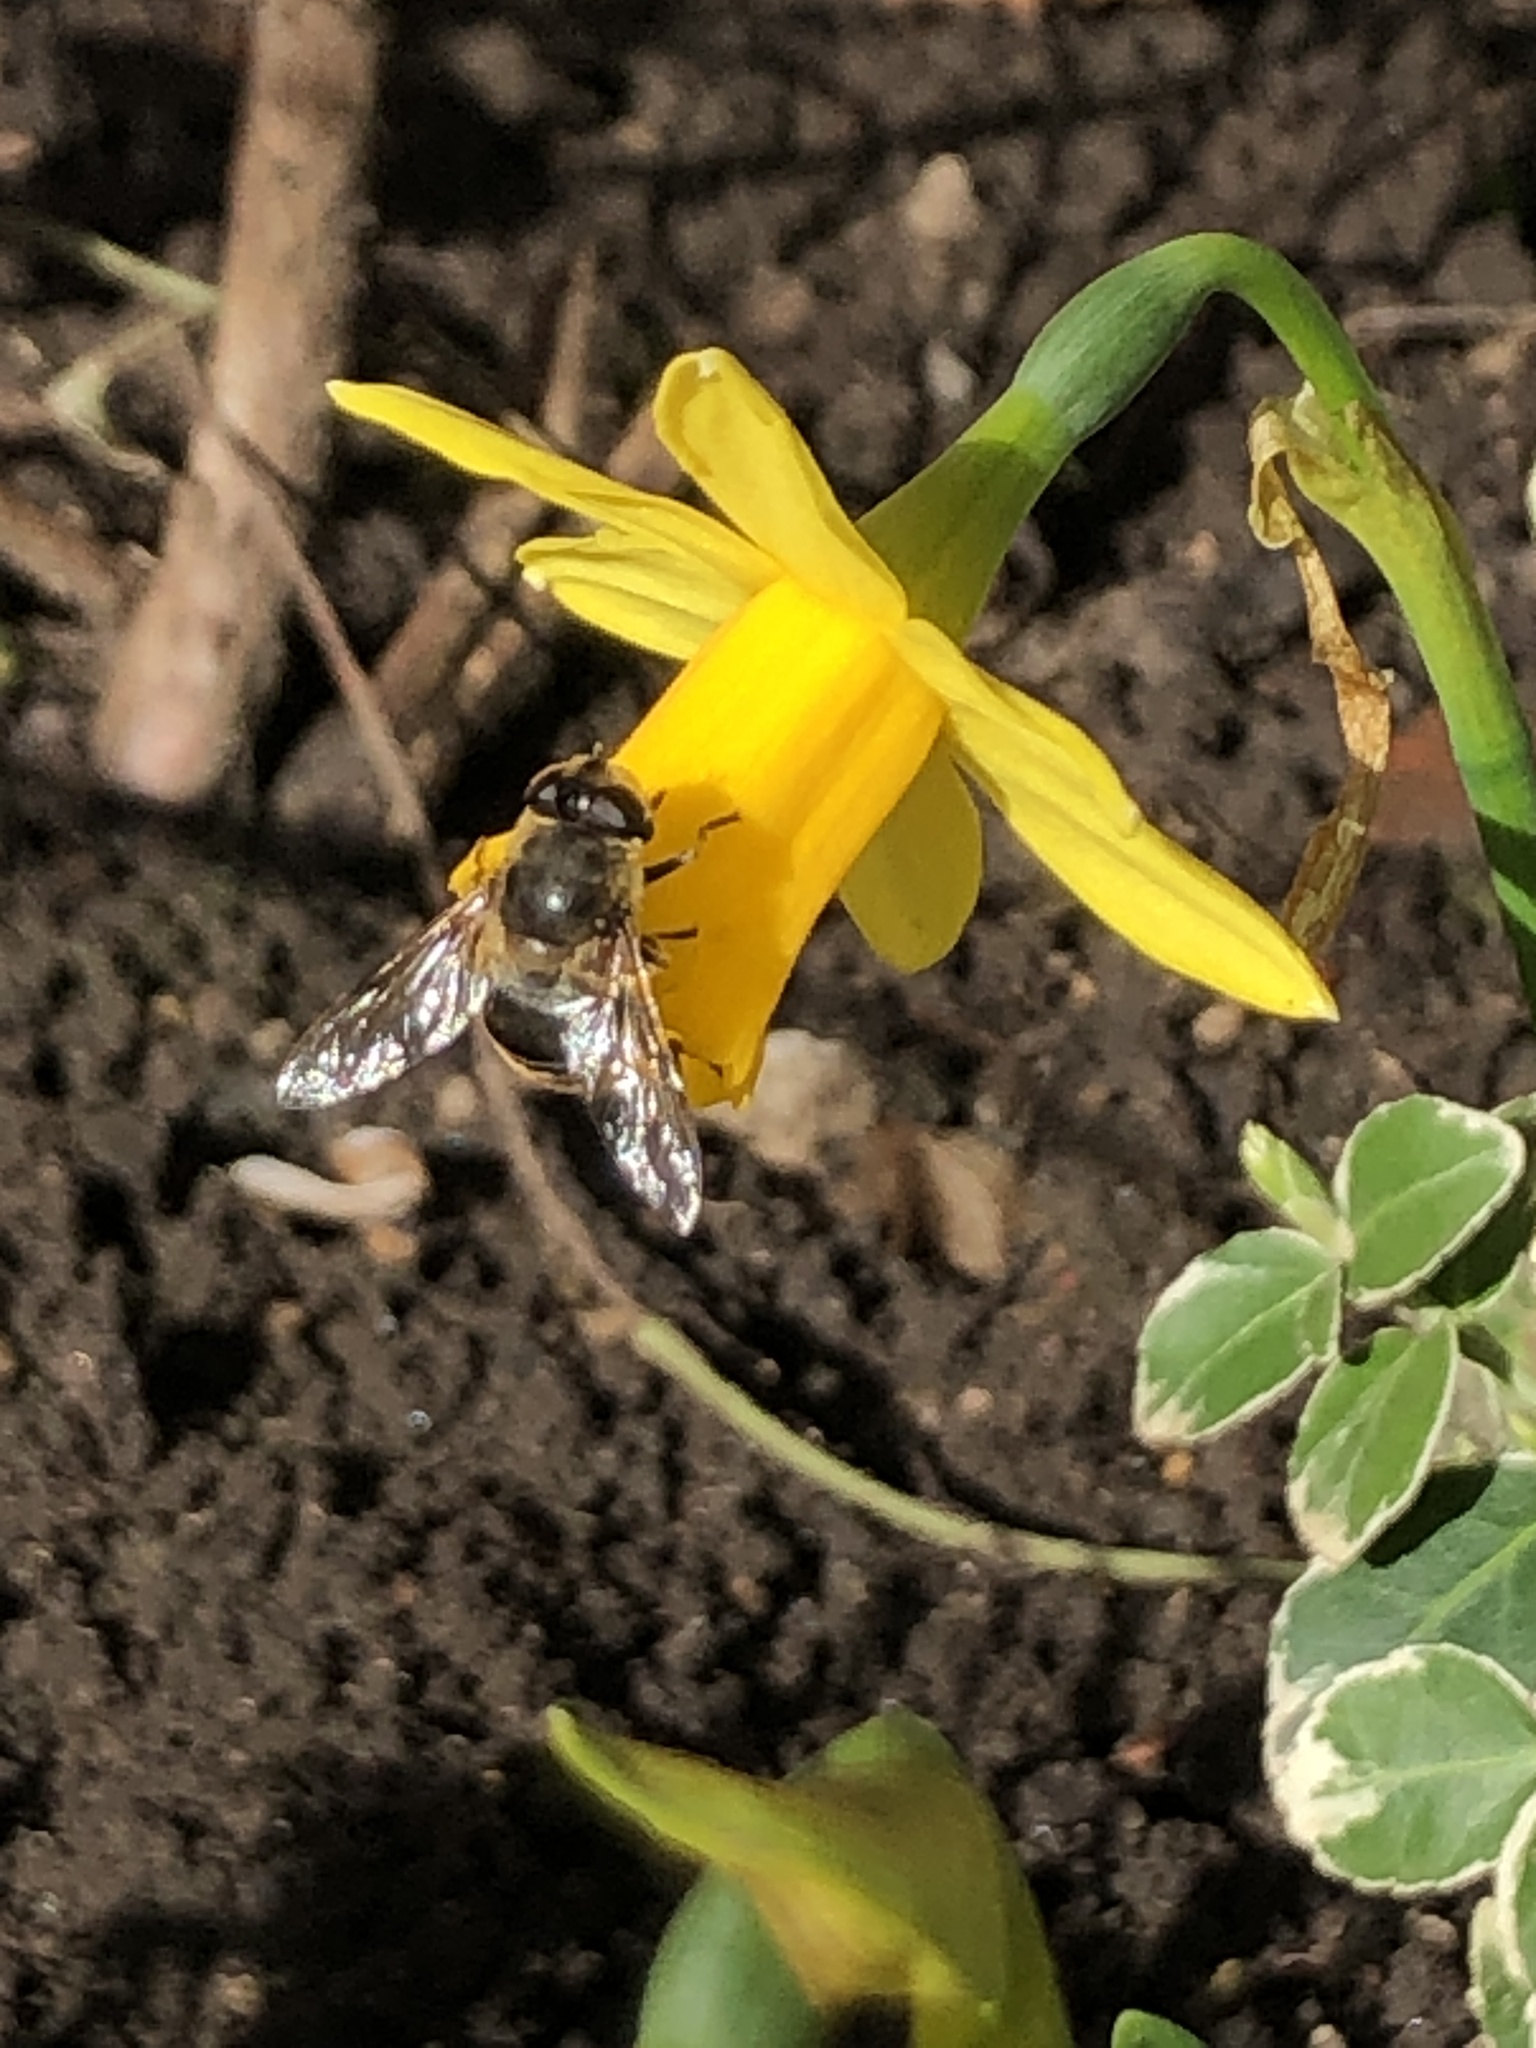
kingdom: Animalia
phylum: Arthropoda
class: Insecta
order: Diptera
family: Syrphidae
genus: Eristalis
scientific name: Eristalis tenax
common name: Drone fly
